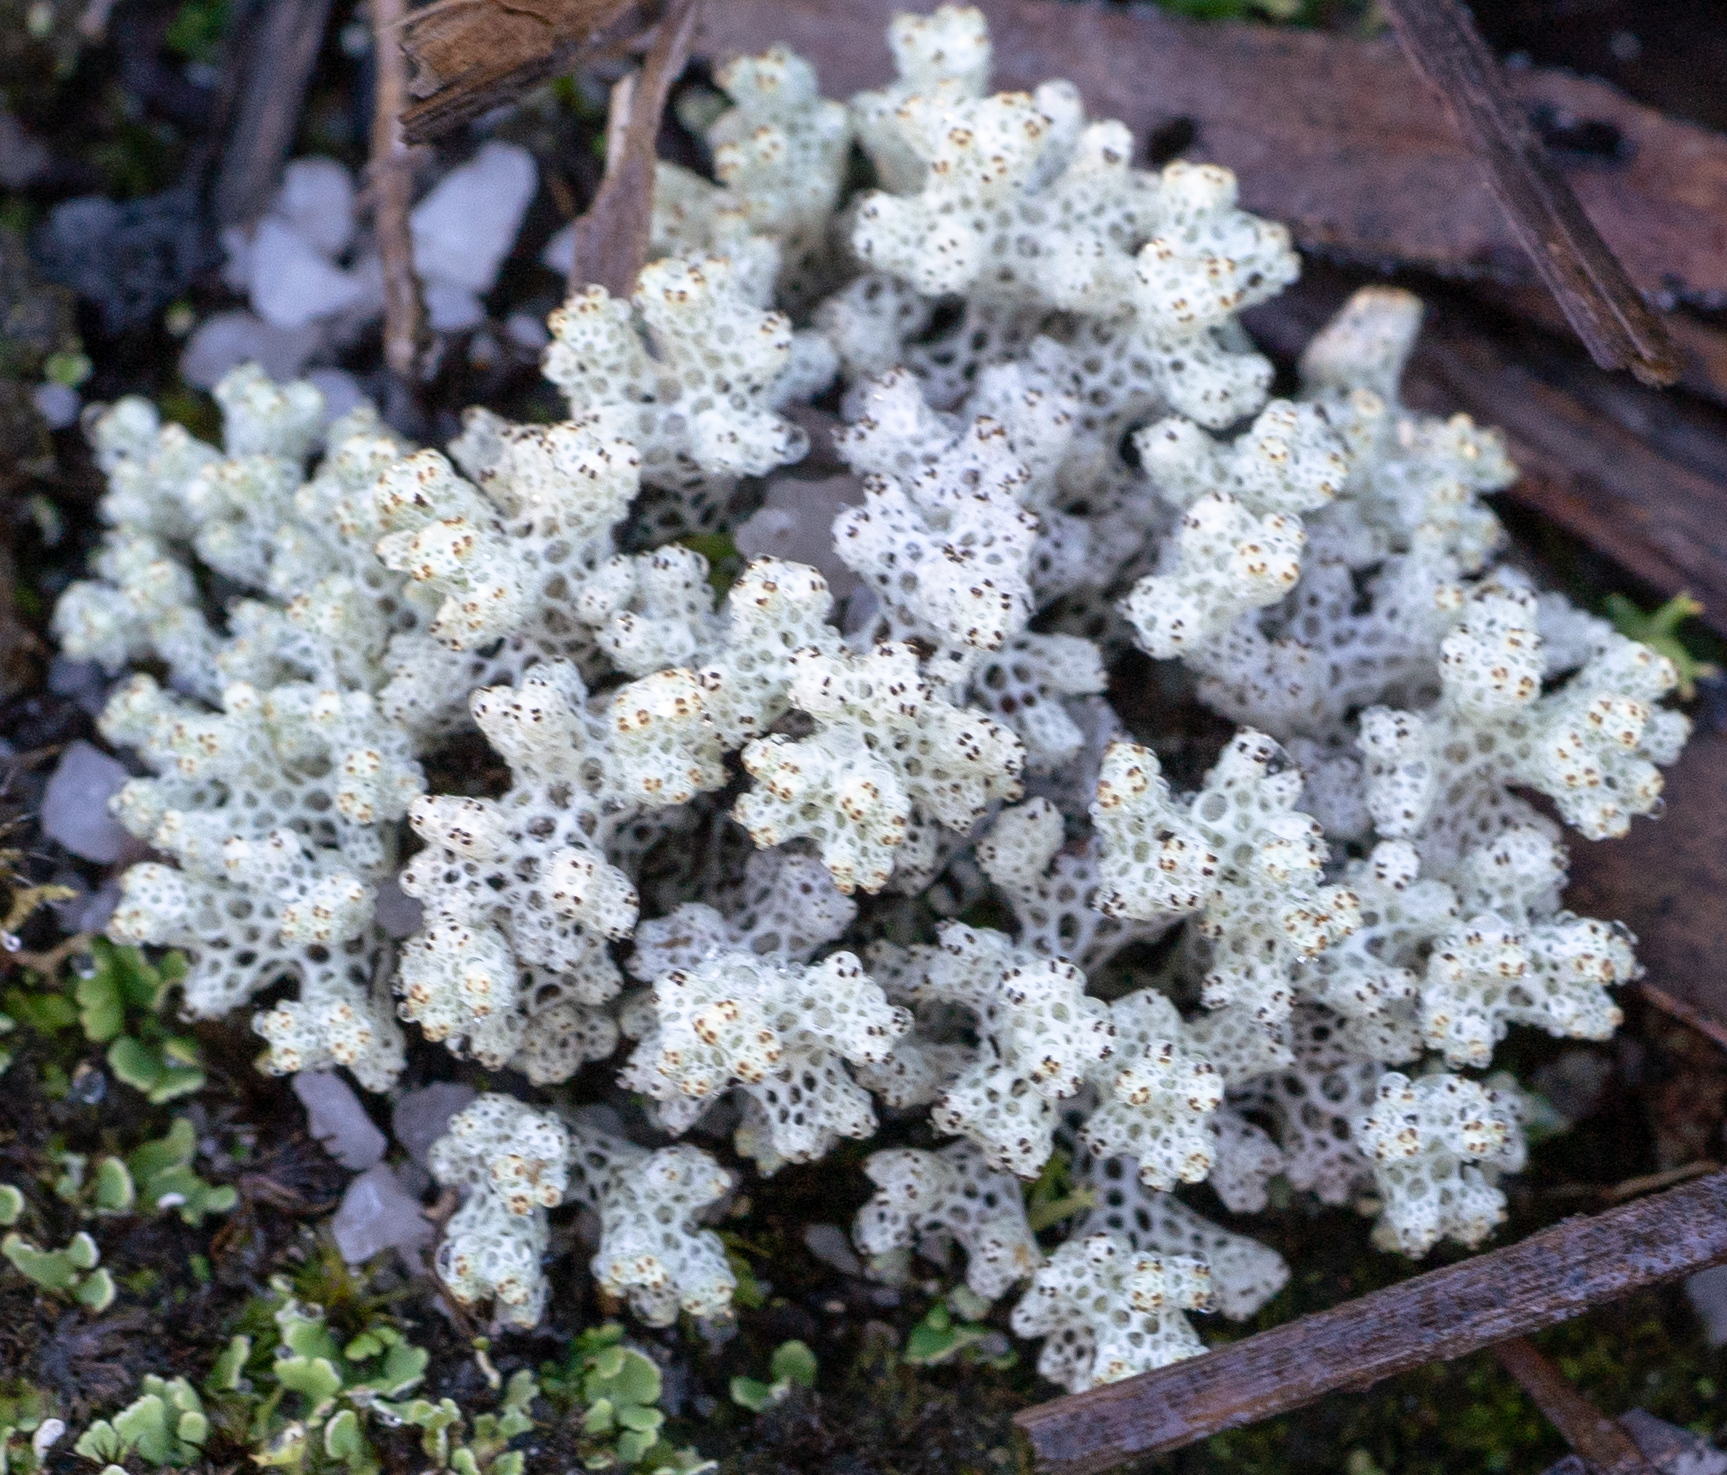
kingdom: Fungi
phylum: Ascomycota
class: Lecanoromycetes
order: Lecanorales
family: Cladoniaceae
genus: Pulchrocladia
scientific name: Pulchrocladia retipora
